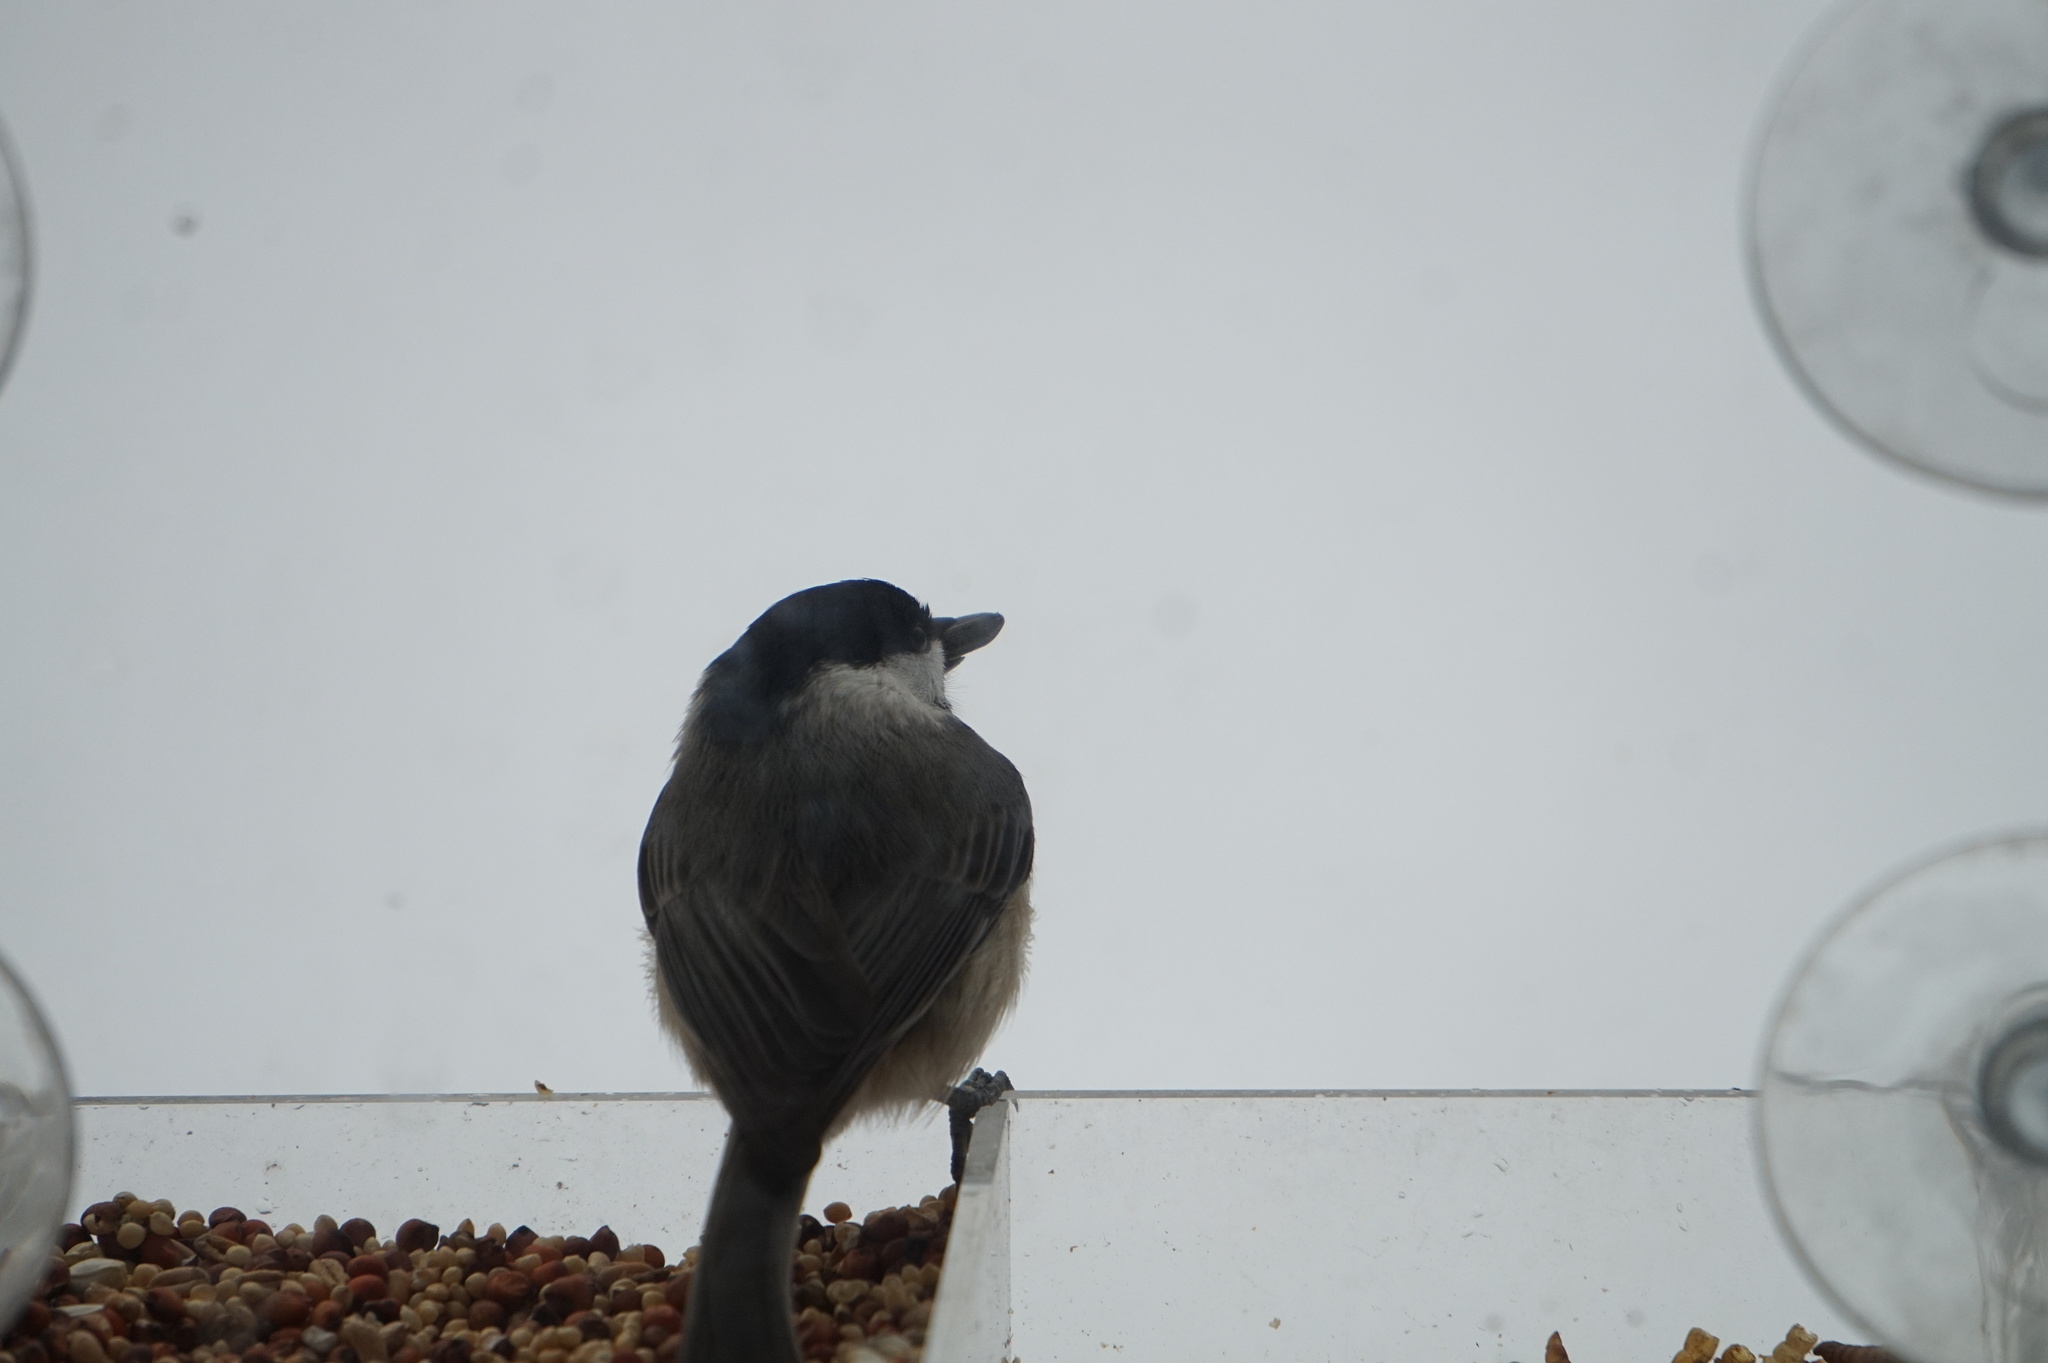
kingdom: Animalia
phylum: Chordata
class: Aves
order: Passeriformes
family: Paridae
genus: Poecile
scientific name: Poecile carolinensis
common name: Carolina chickadee
